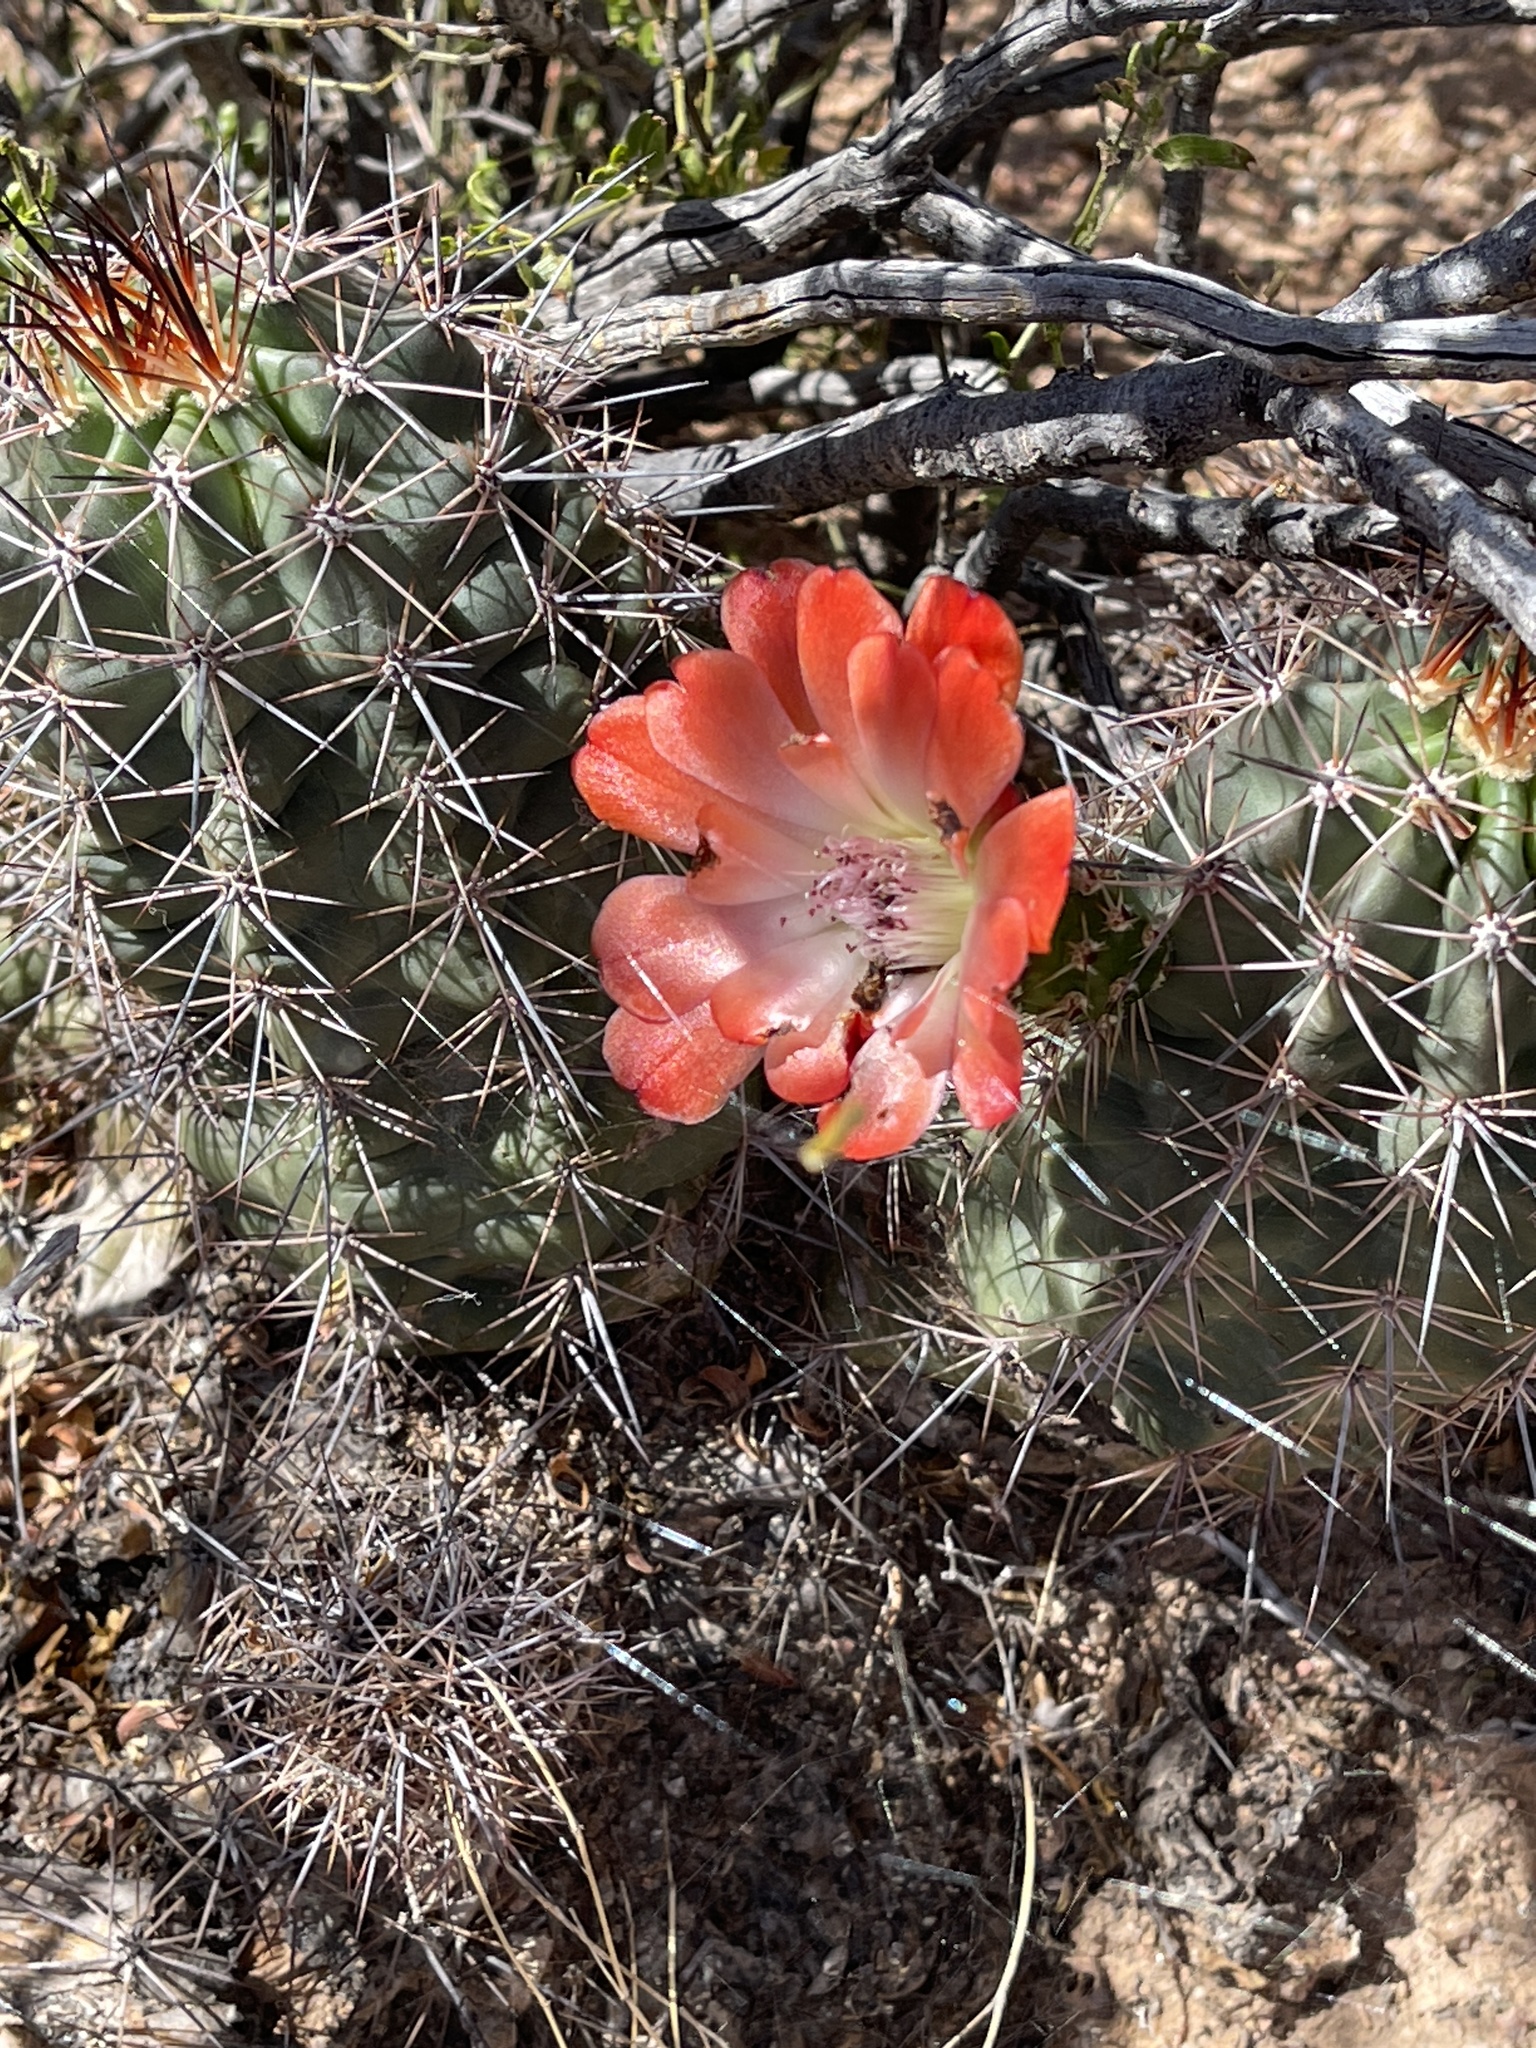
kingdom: Plantae
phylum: Tracheophyta
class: Magnoliopsida
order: Caryophyllales
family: Cactaceae
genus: Echinocereus
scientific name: Echinocereus coccineus
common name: Scarlet hedgehog cactus
